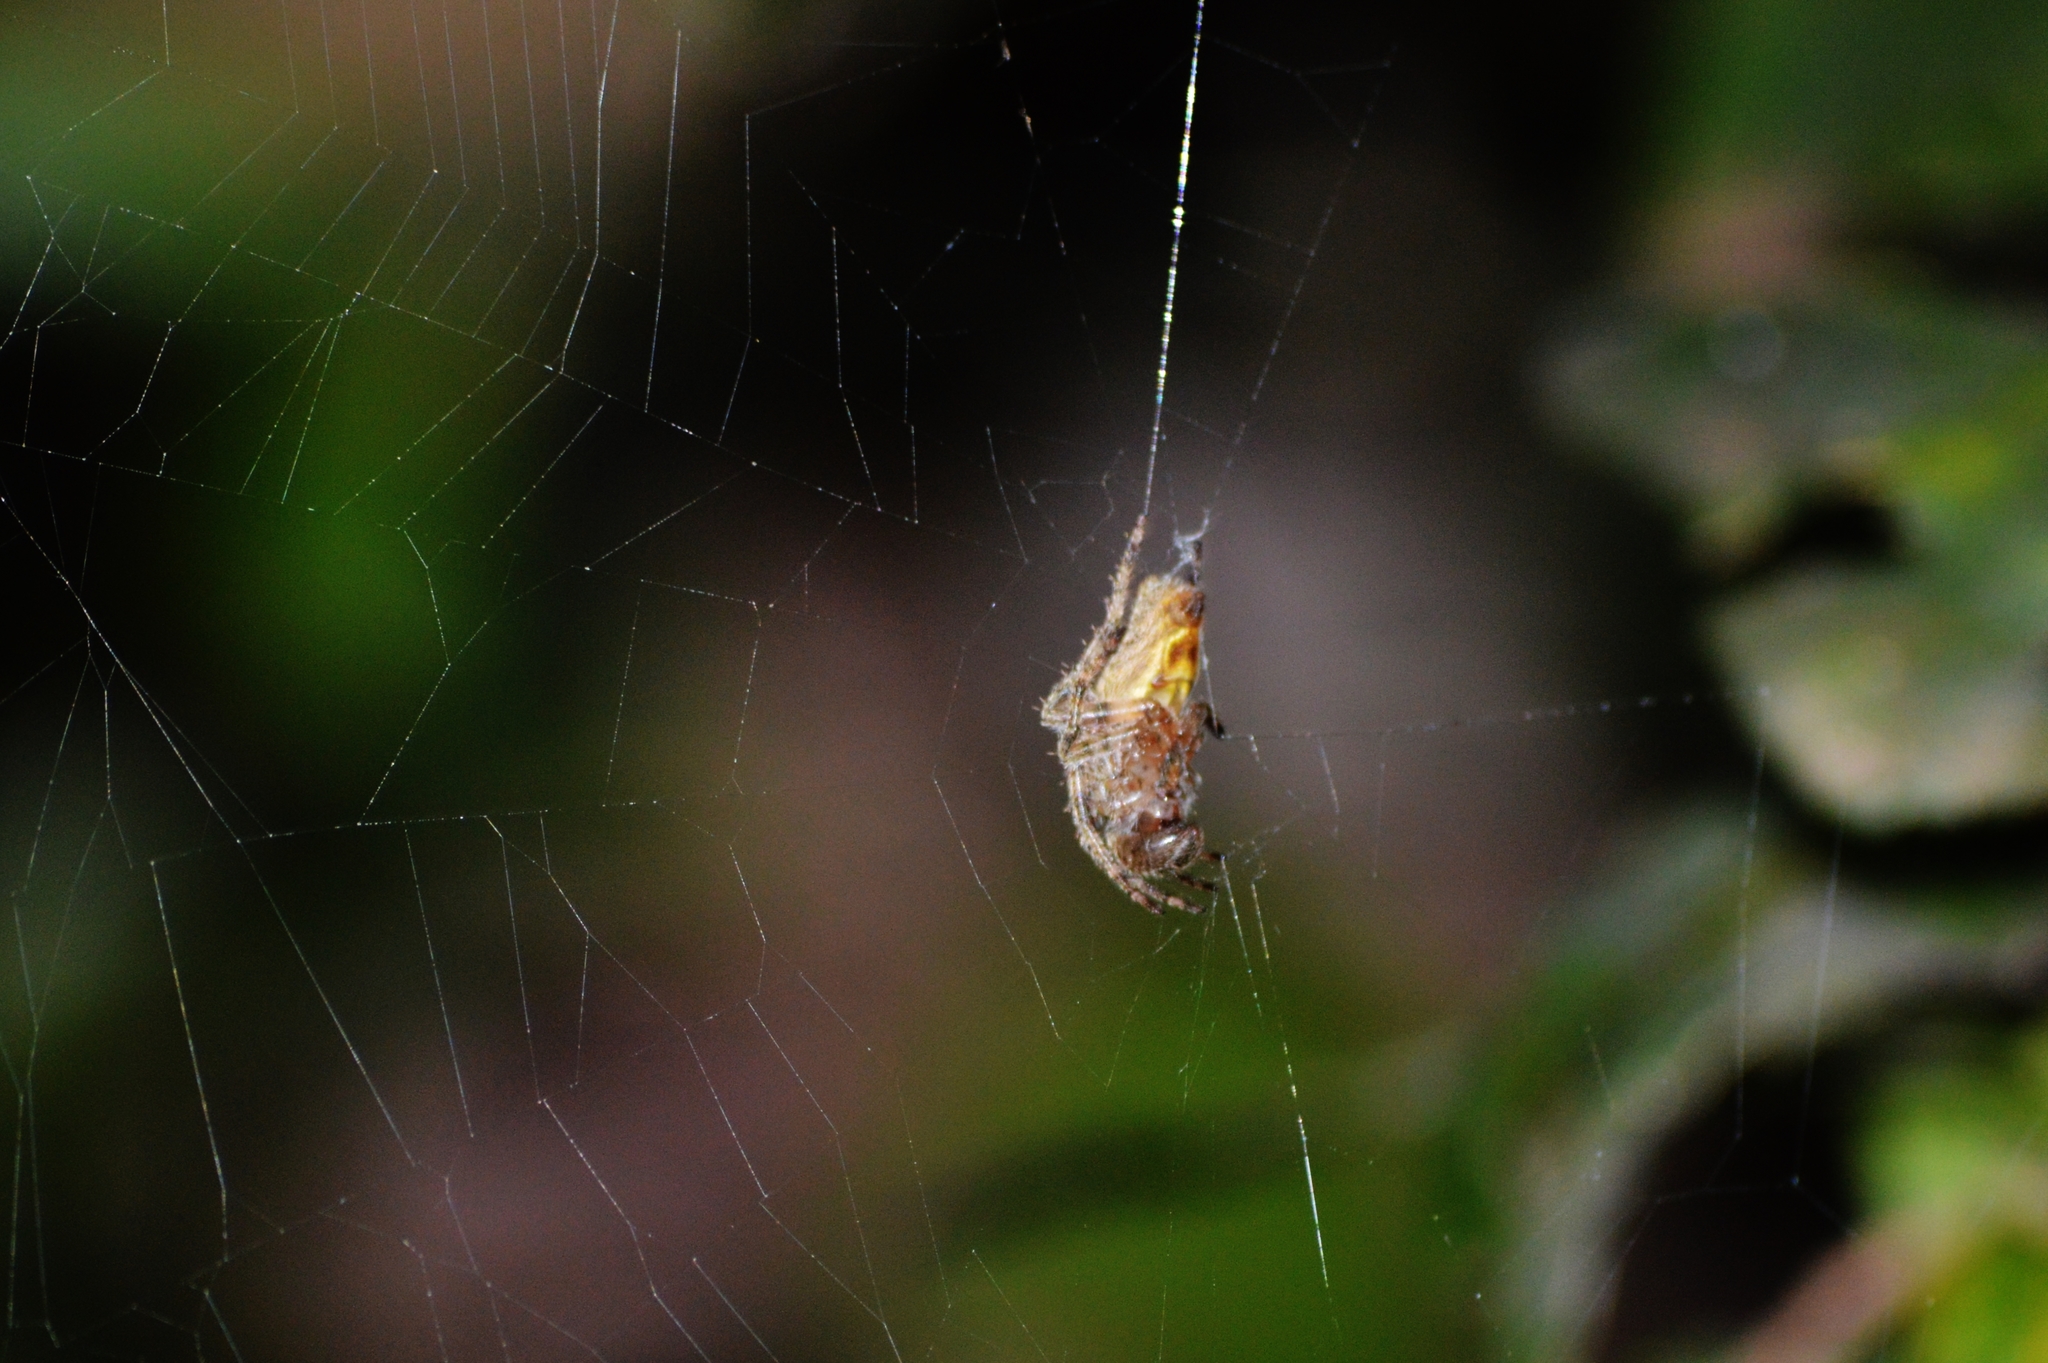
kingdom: Animalia
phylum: Arthropoda
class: Arachnida
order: Araneae
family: Araneidae
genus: Eriophora
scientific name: Eriophora edax
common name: Orb weavers
